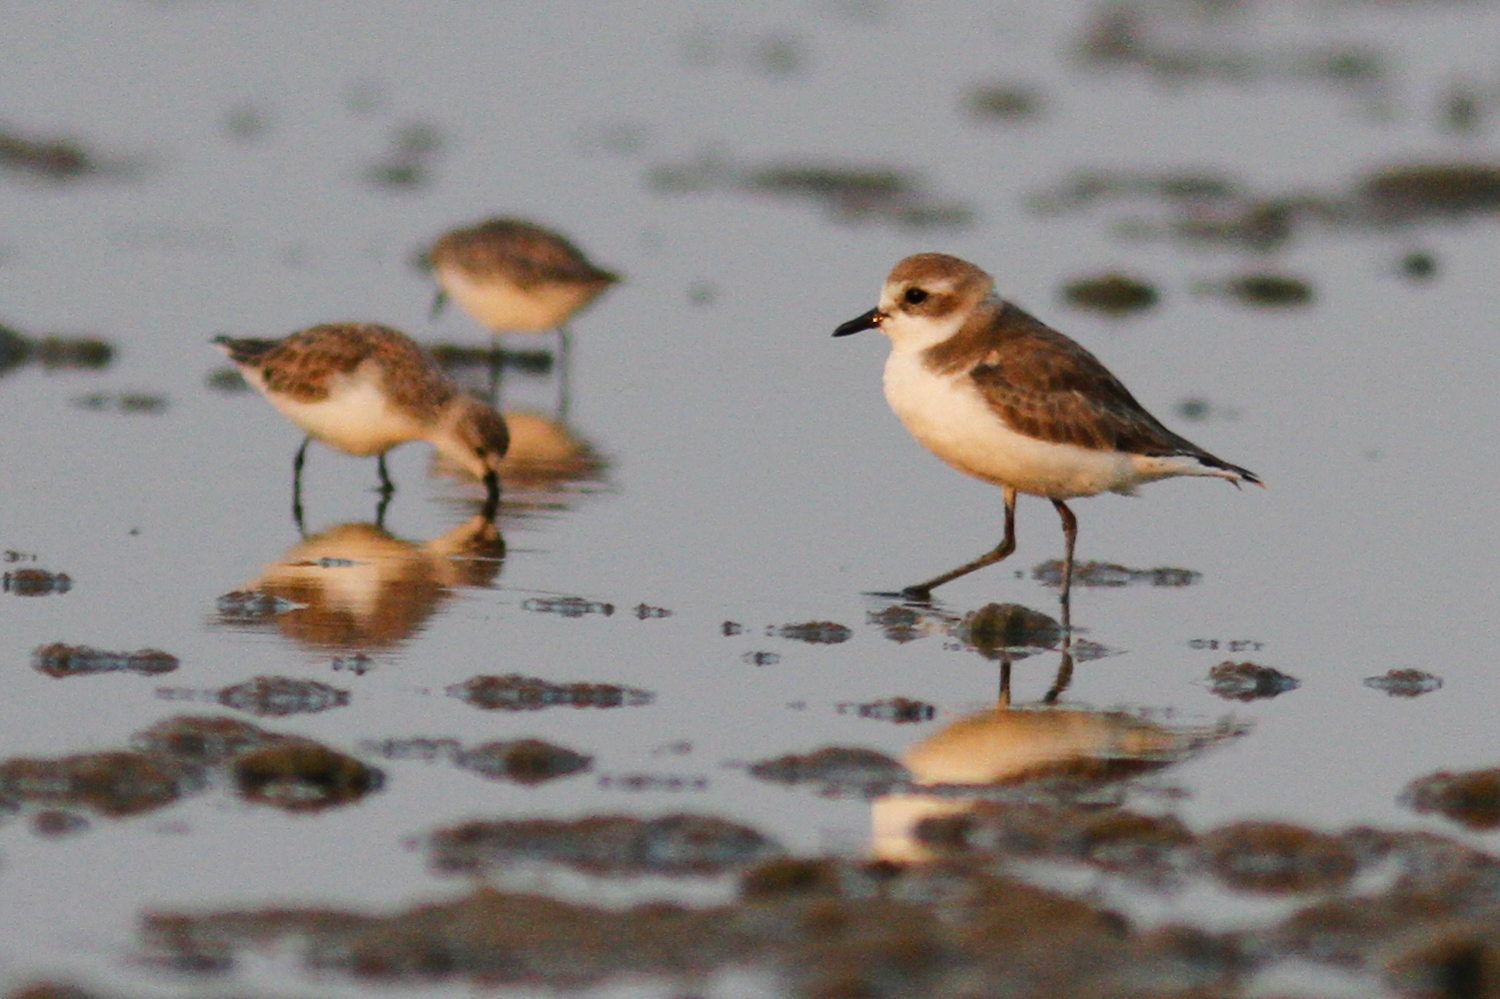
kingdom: Animalia
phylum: Chordata
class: Aves
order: Charadriiformes
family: Charadriidae
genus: Anarhynchus
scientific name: Anarhynchus
